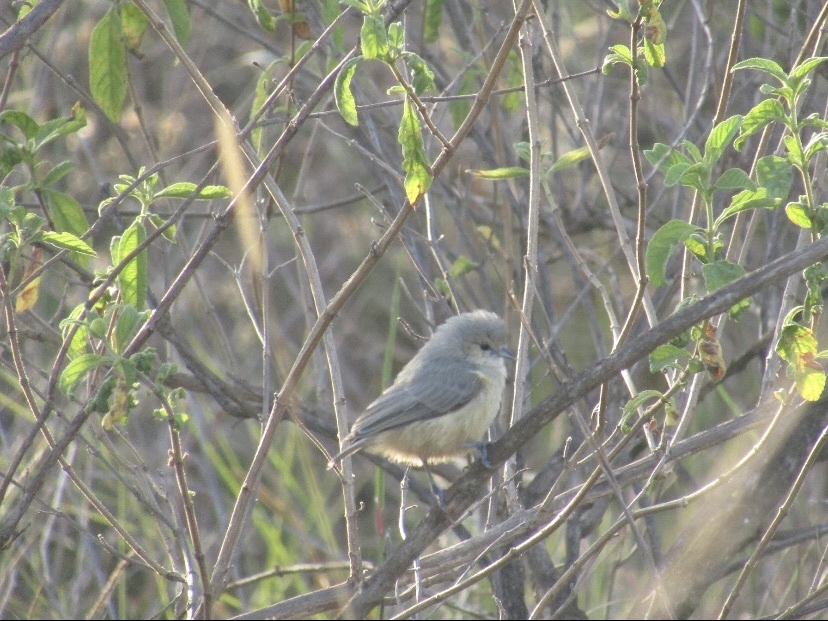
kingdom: Animalia
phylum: Chordata
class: Aves
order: Passeriformes
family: Remizidae
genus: Anthoscopus
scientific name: Anthoscopus minutus
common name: Cape penduline tit
